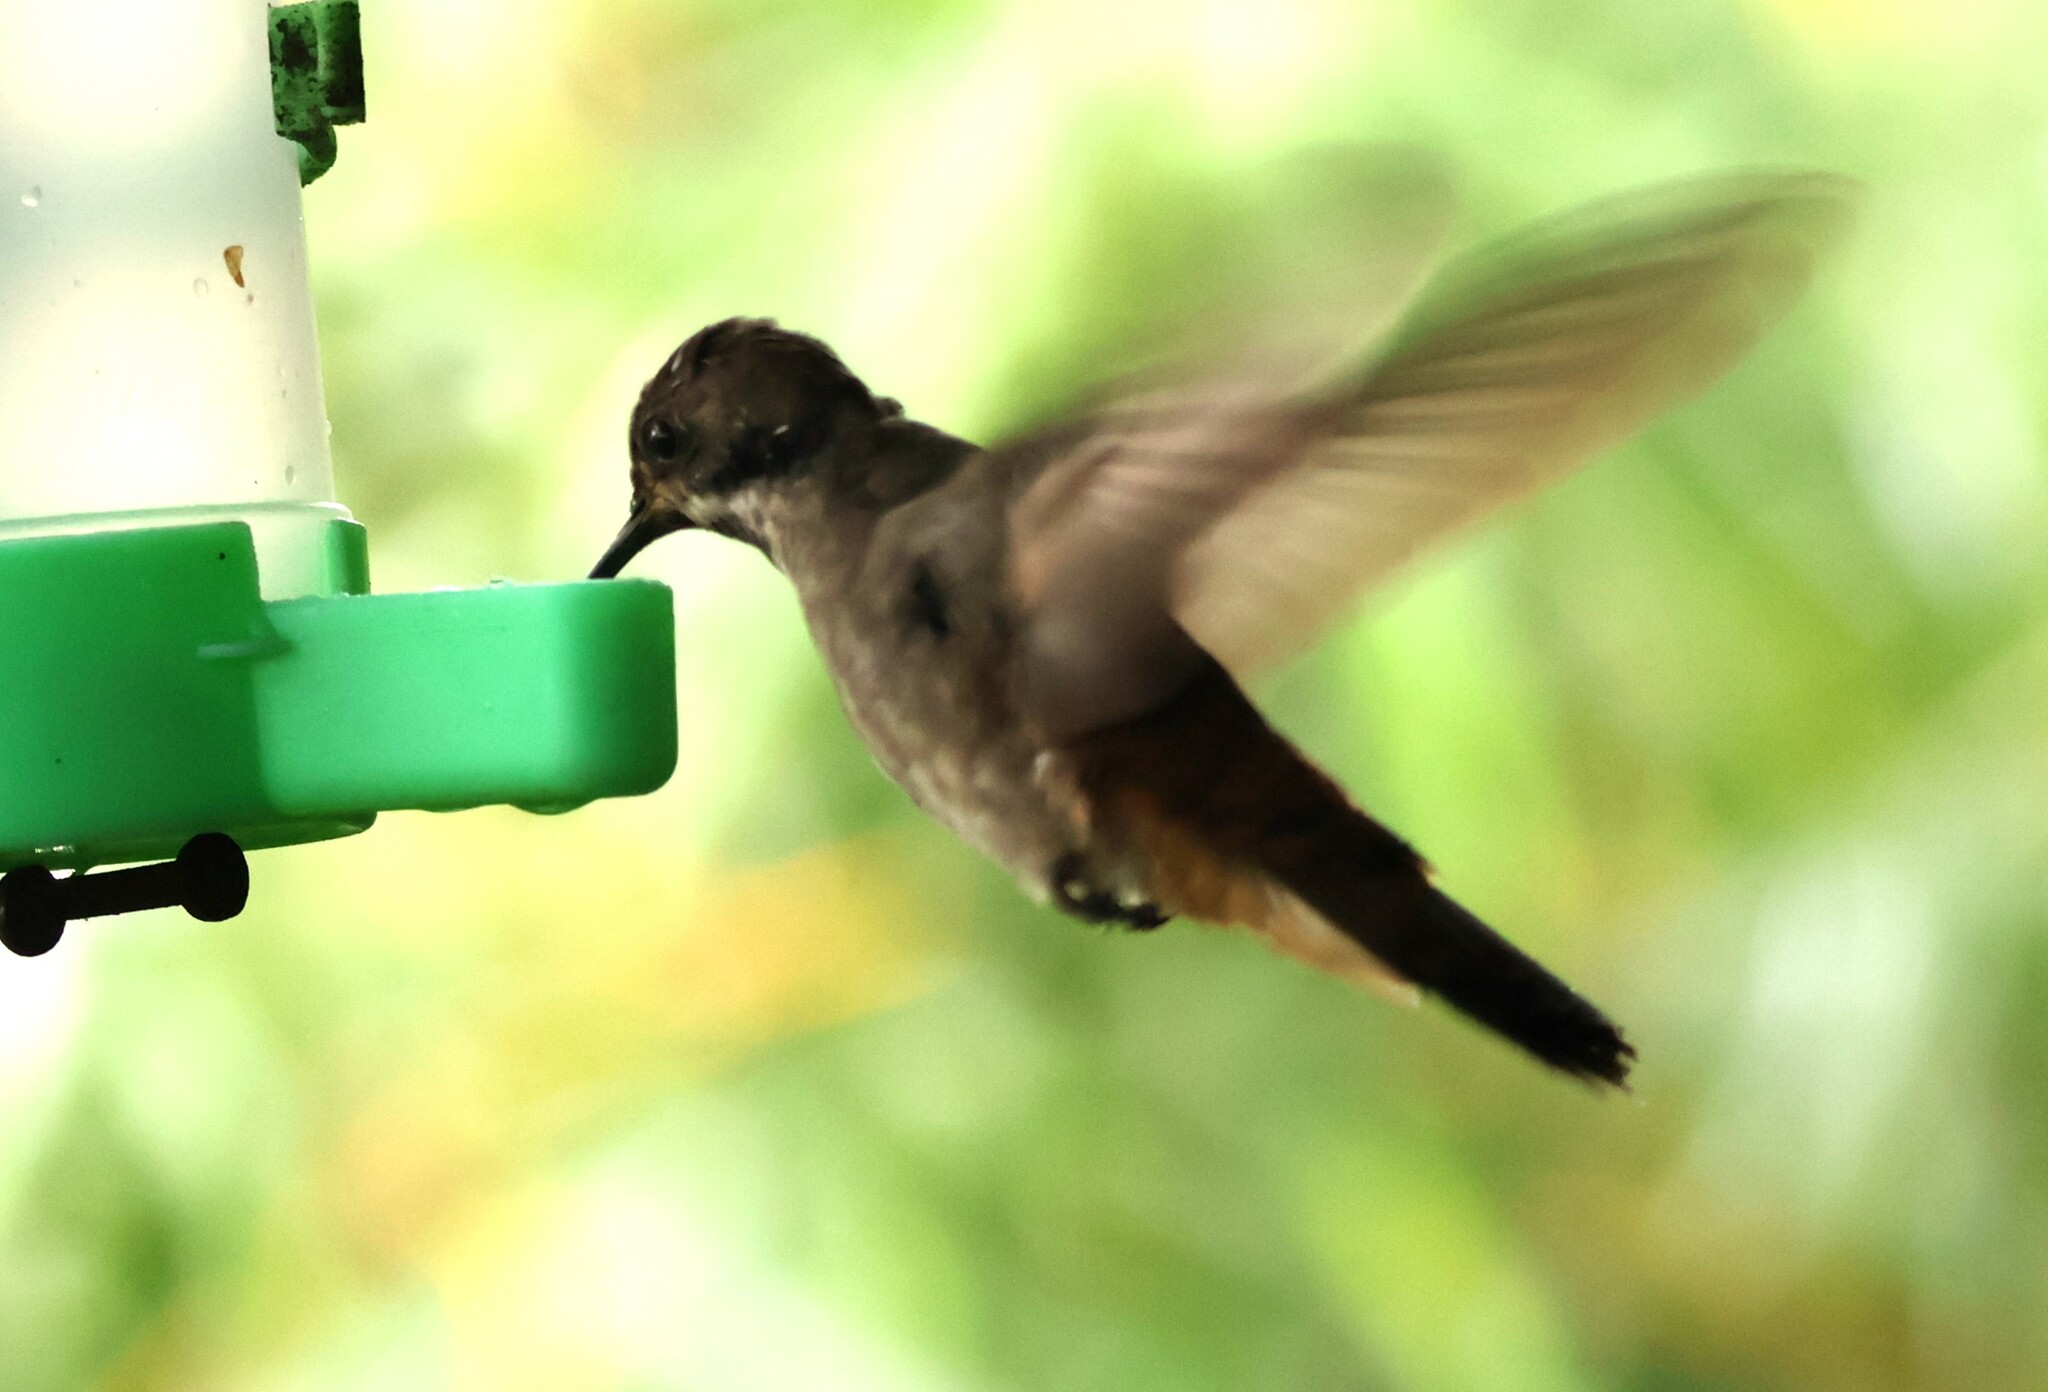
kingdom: Animalia
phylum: Chordata
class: Aves
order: Apodiformes
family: Trochilidae
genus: Colibri
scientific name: Colibri delphinae
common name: Brown violetear
